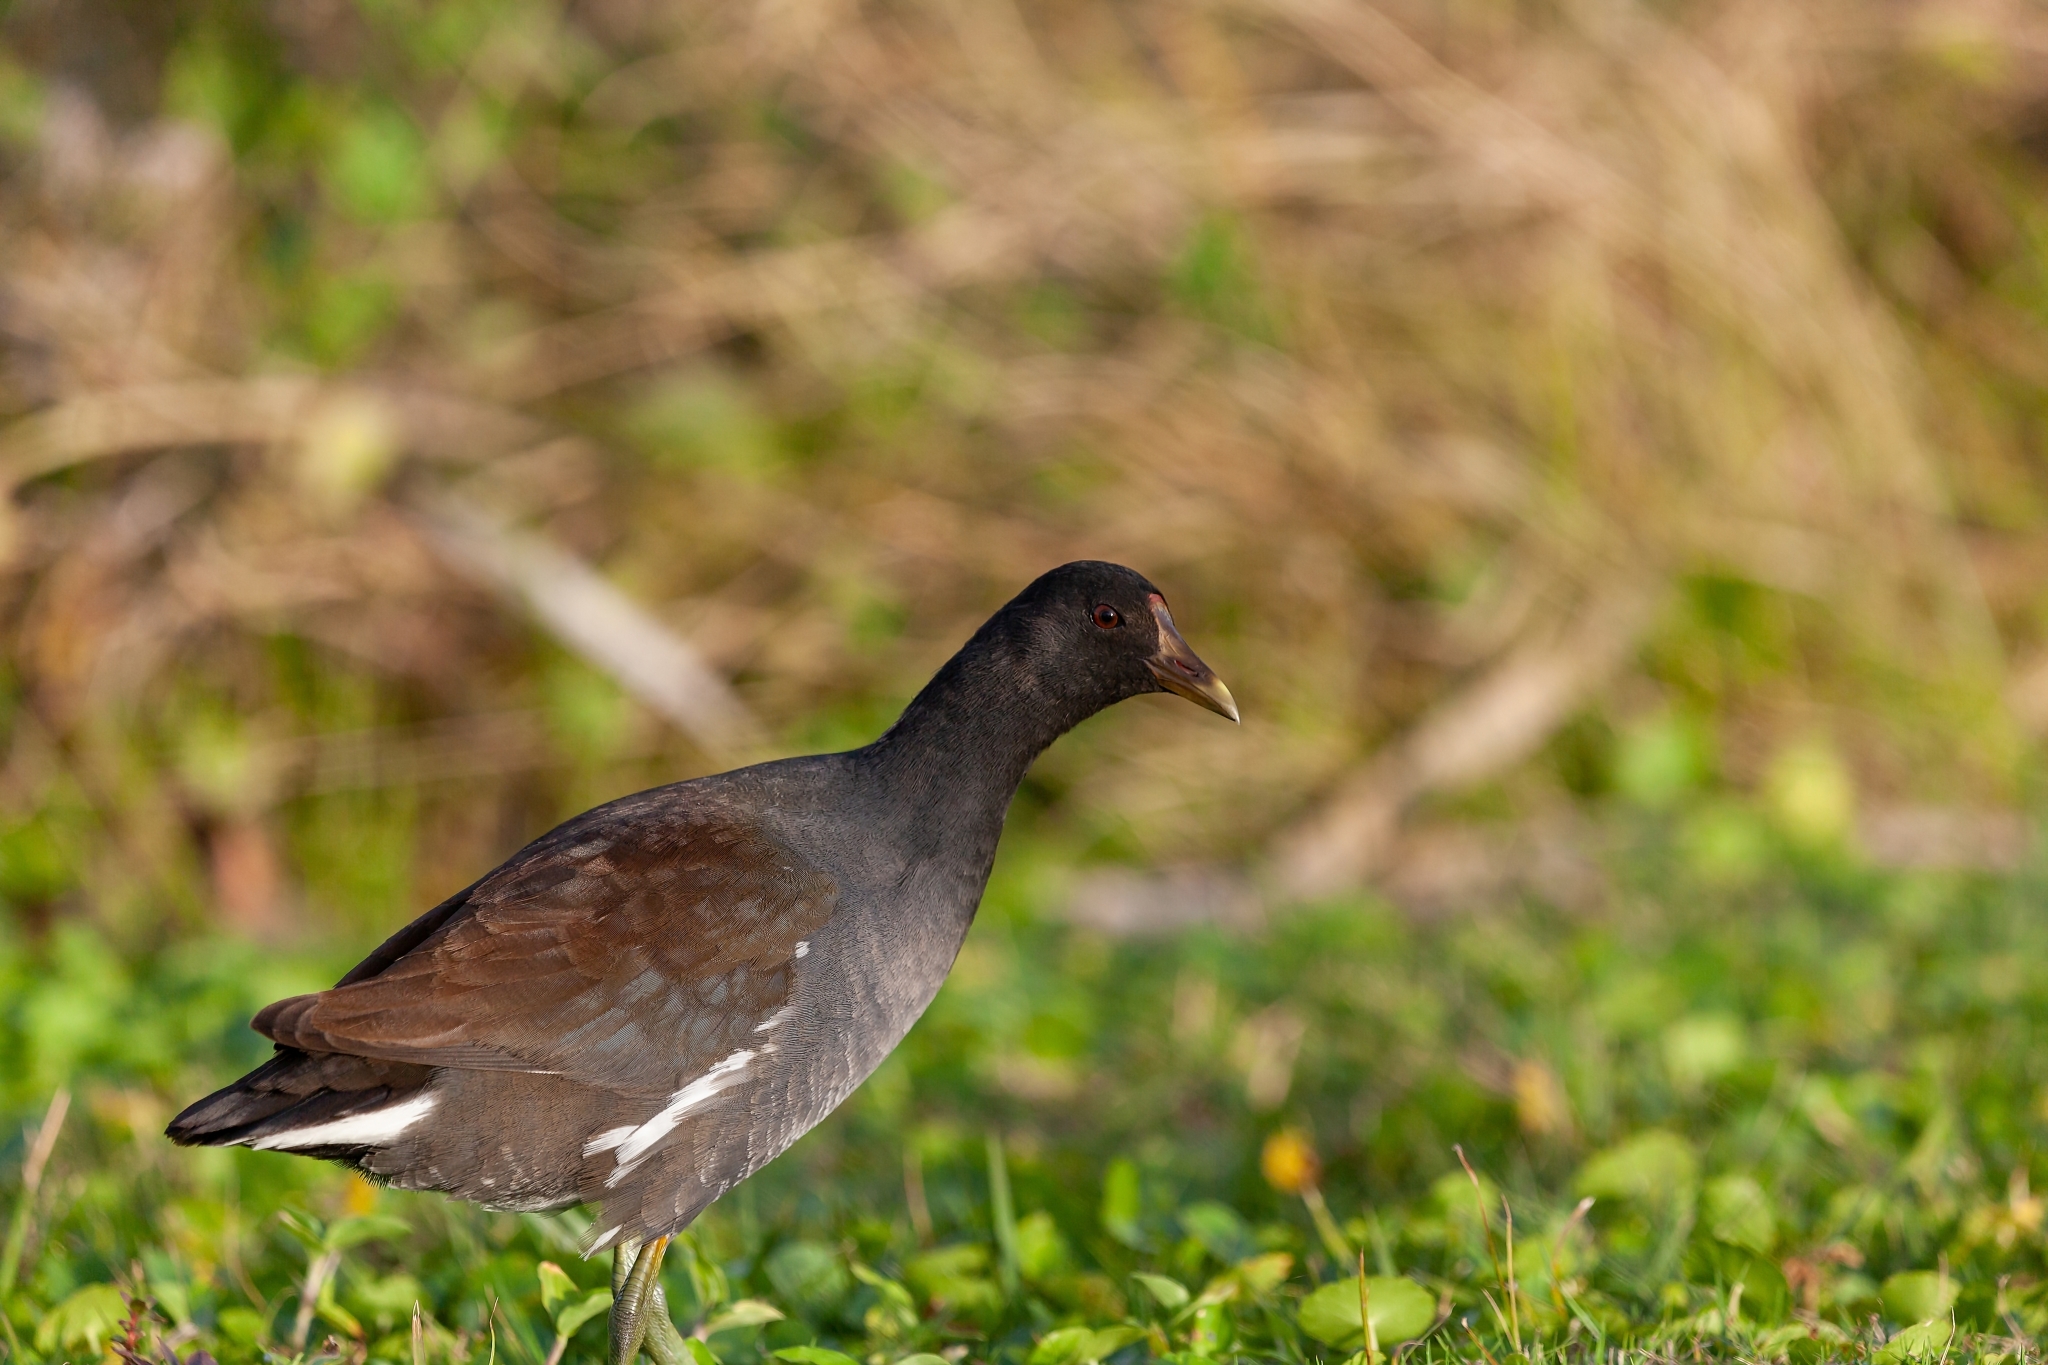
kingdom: Animalia
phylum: Chordata
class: Aves
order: Gruiformes
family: Rallidae
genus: Gallinula
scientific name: Gallinula chloropus
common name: Common moorhen
